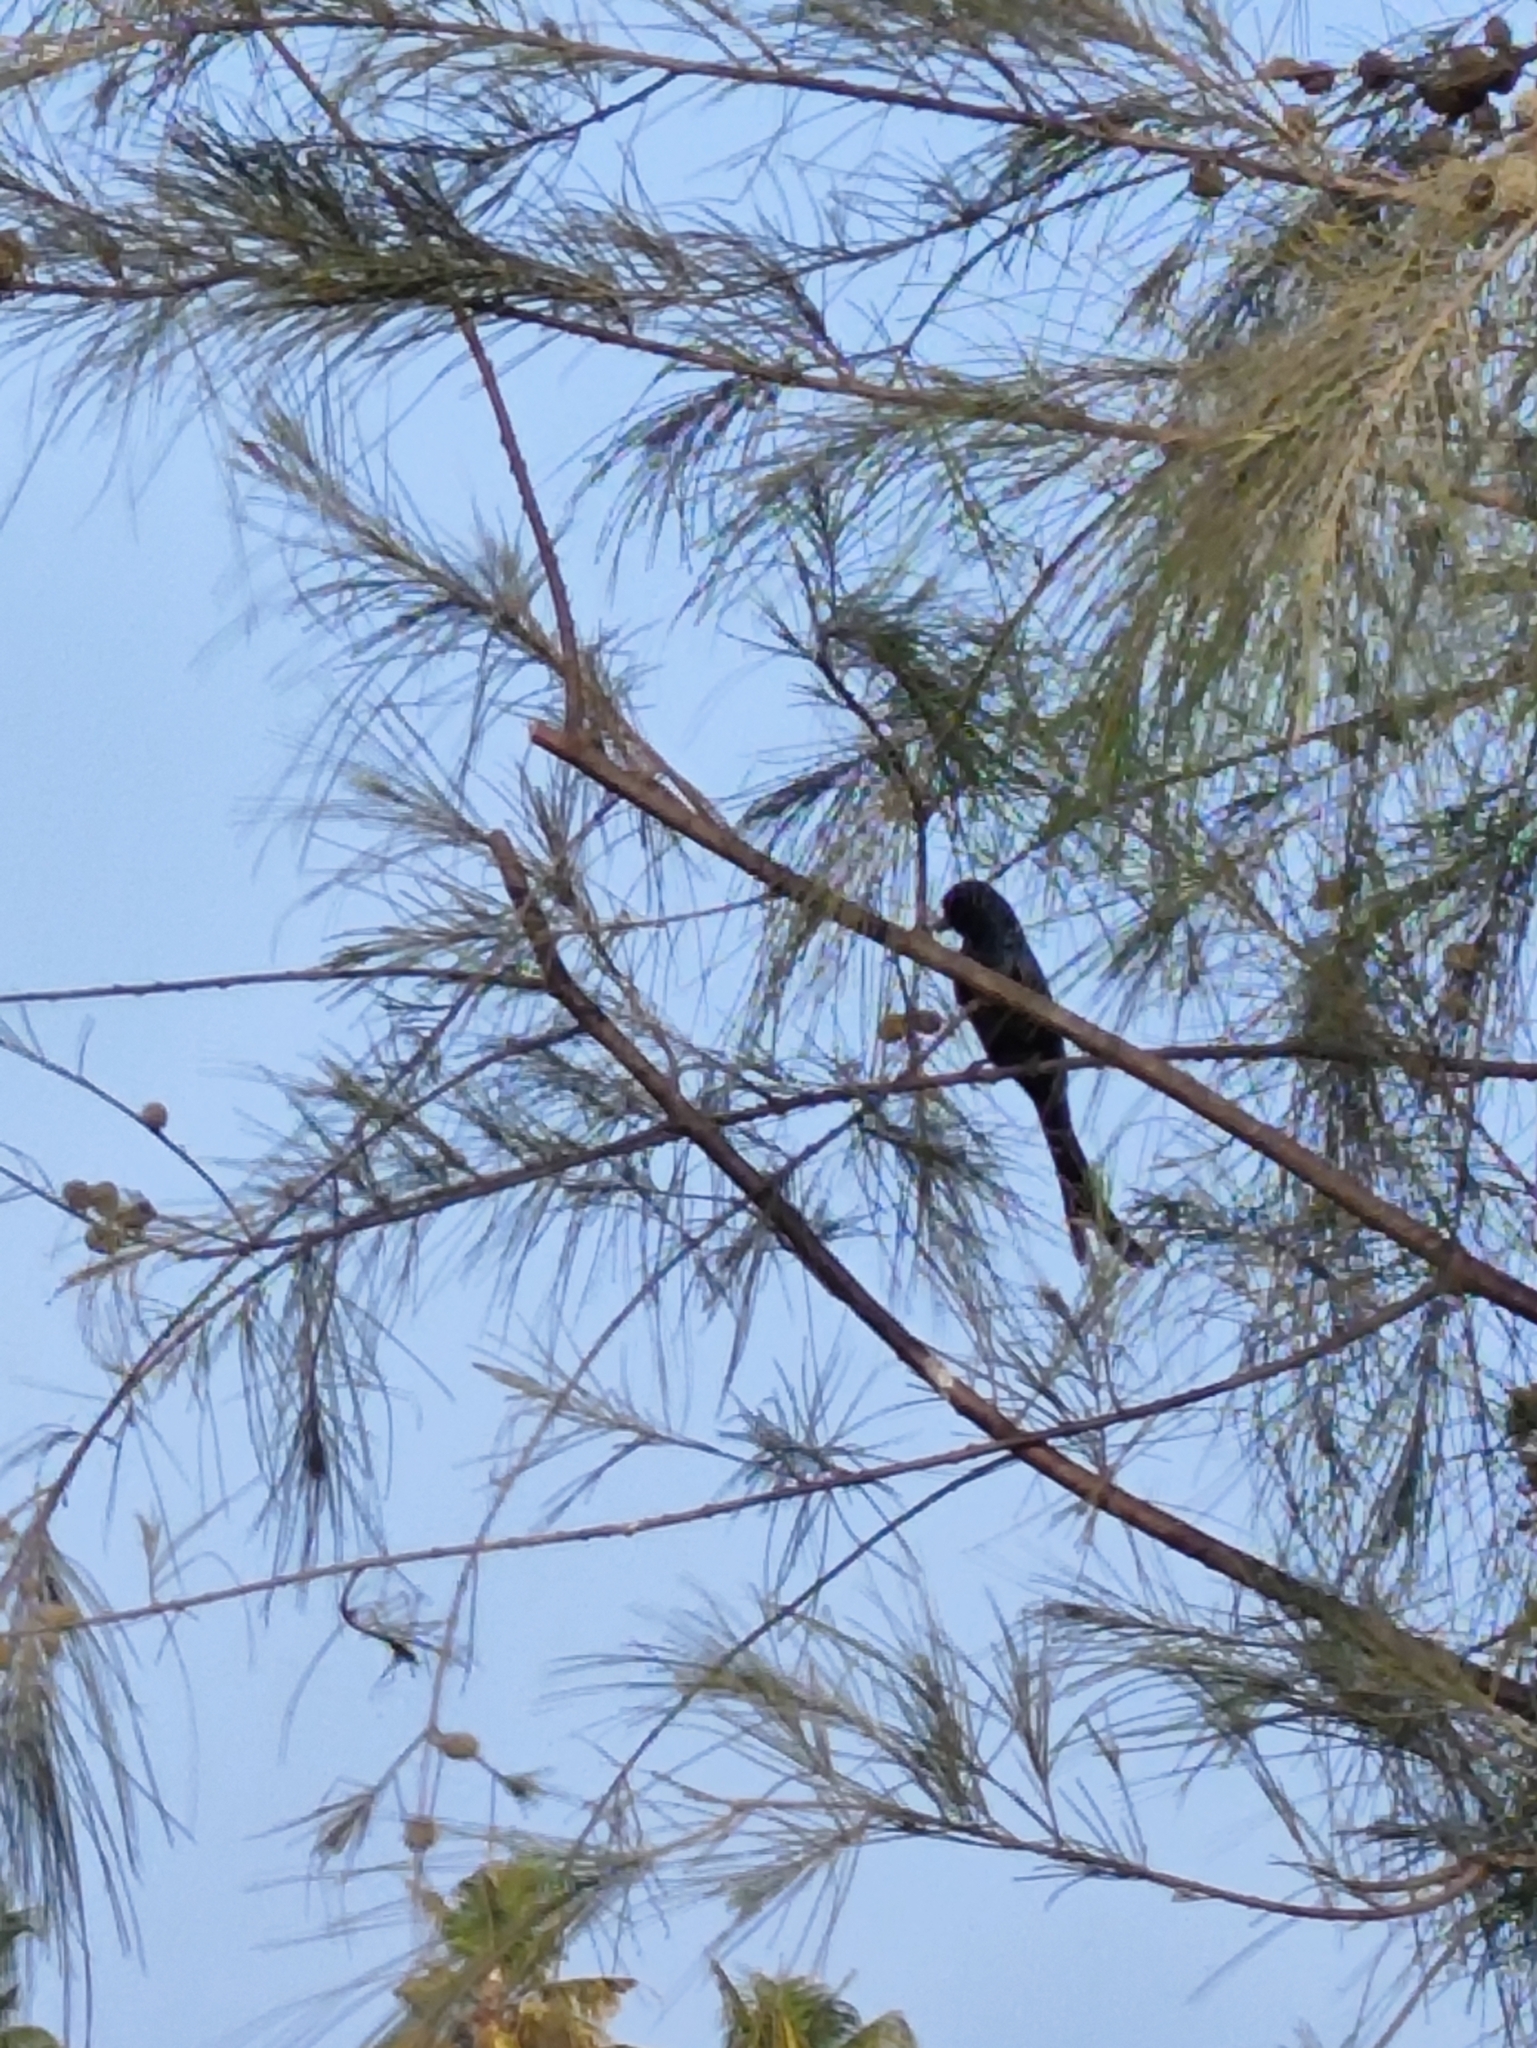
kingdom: Animalia
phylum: Chordata
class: Aves
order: Passeriformes
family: Dicruridae
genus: Dicrurus
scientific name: Dicrurus macrocercus
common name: Black drongo
